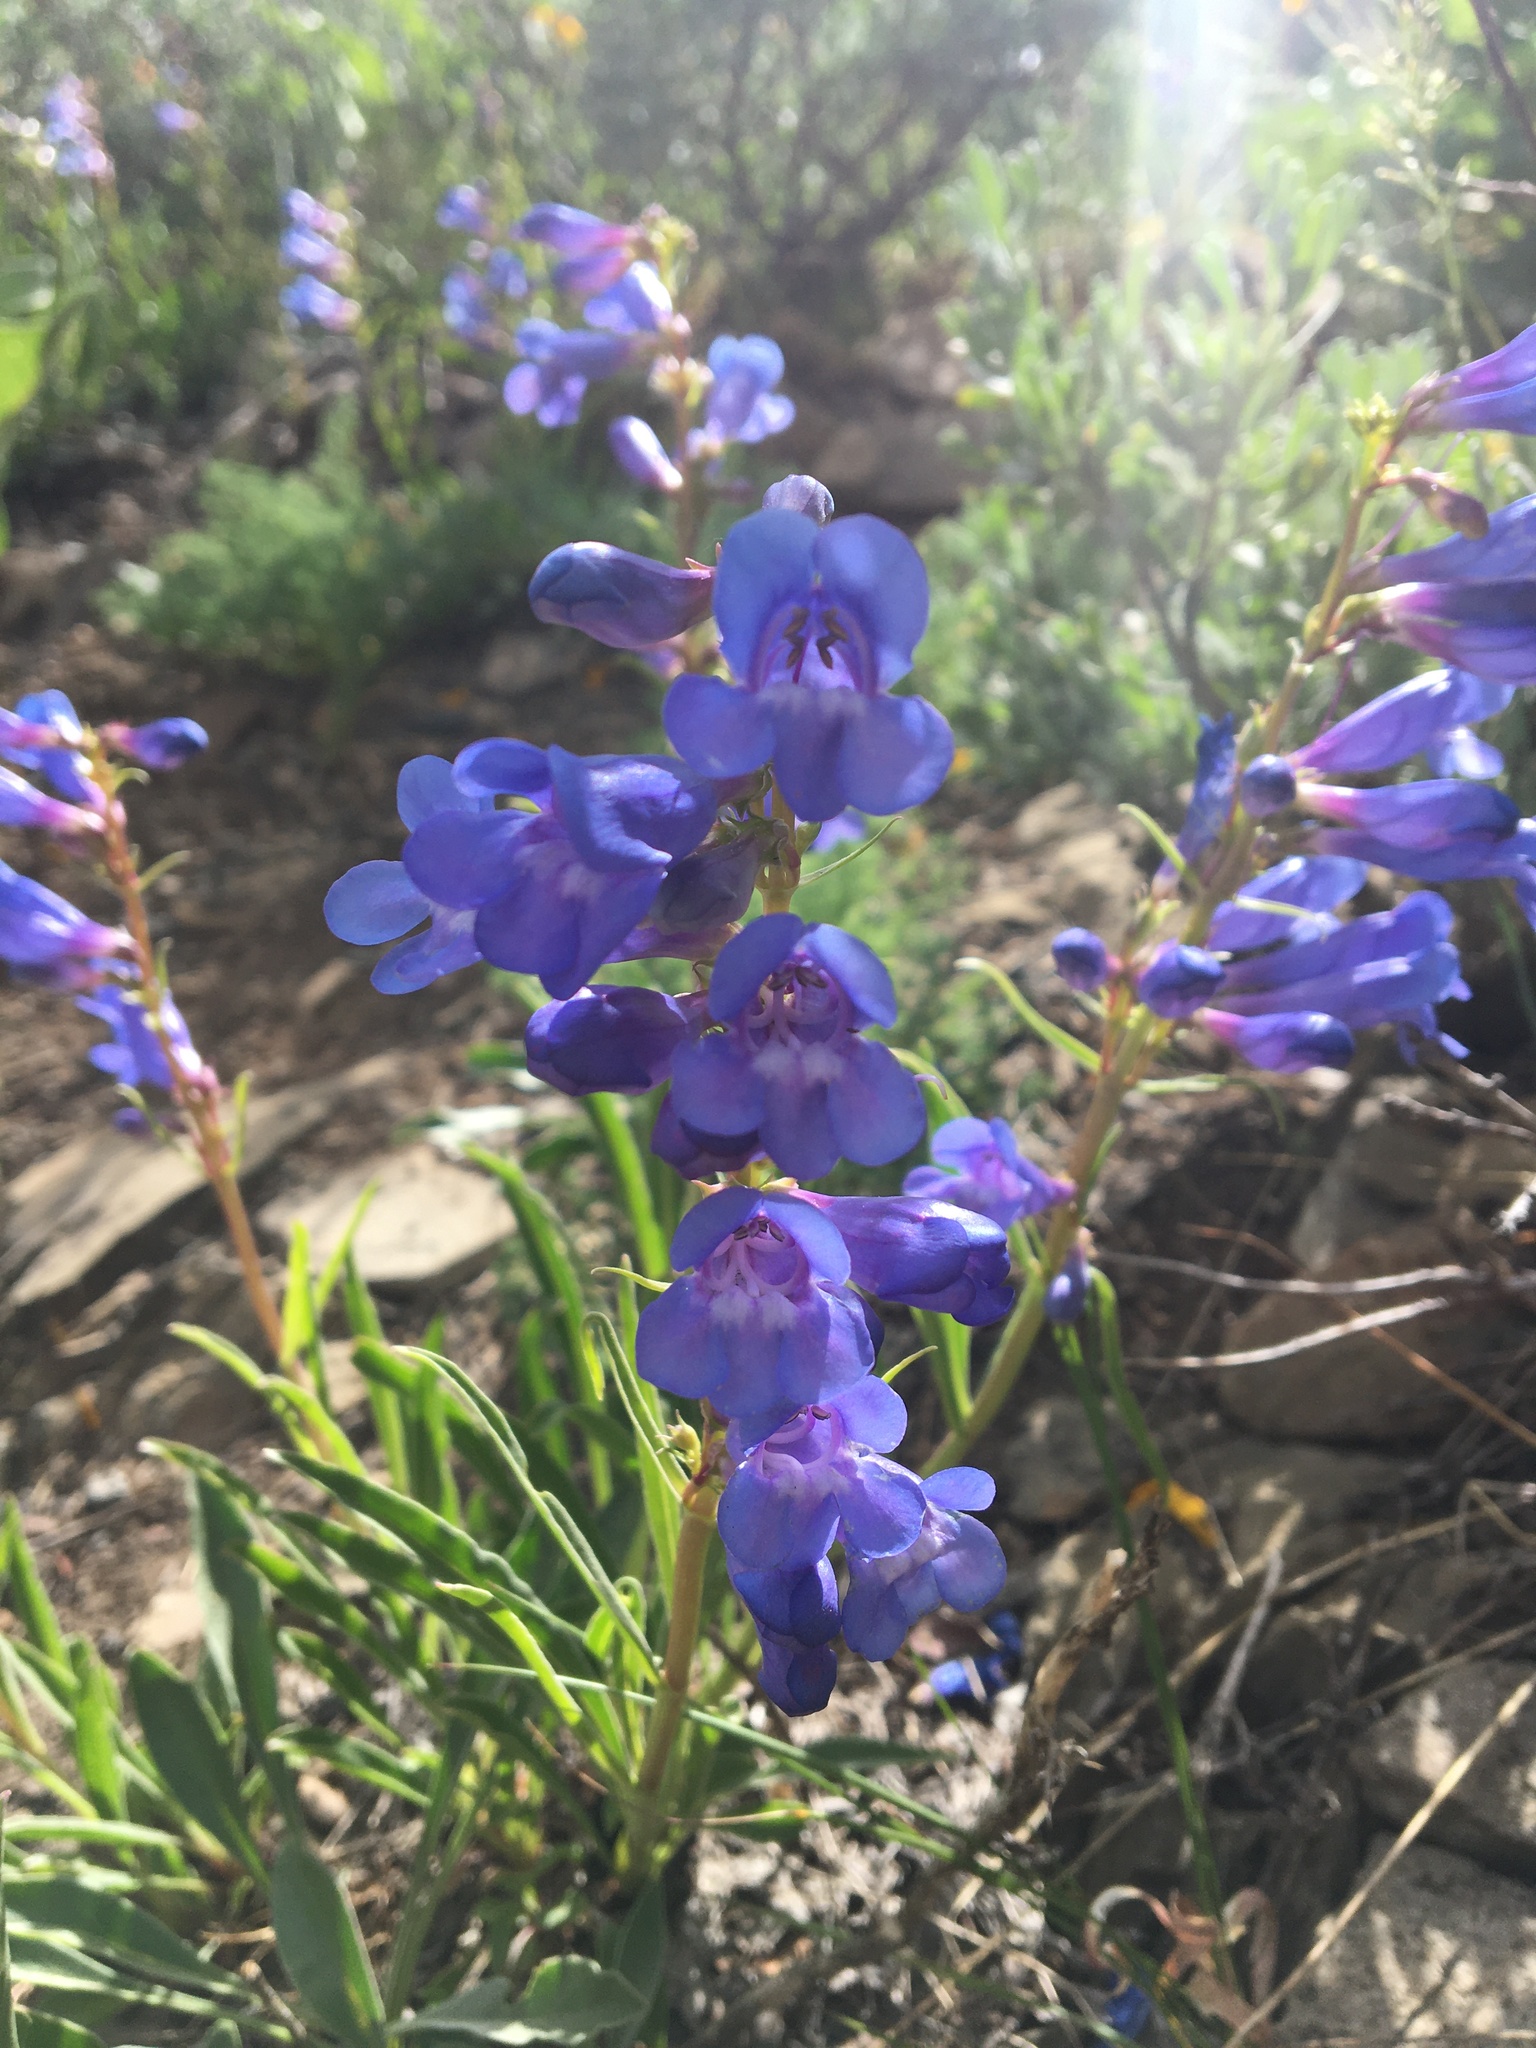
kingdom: Plantae
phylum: Tracheophyta
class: Magnoliopsida
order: Lamiales
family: Plantaginaceae
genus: Penstemon
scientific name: Penstemon speciosus
